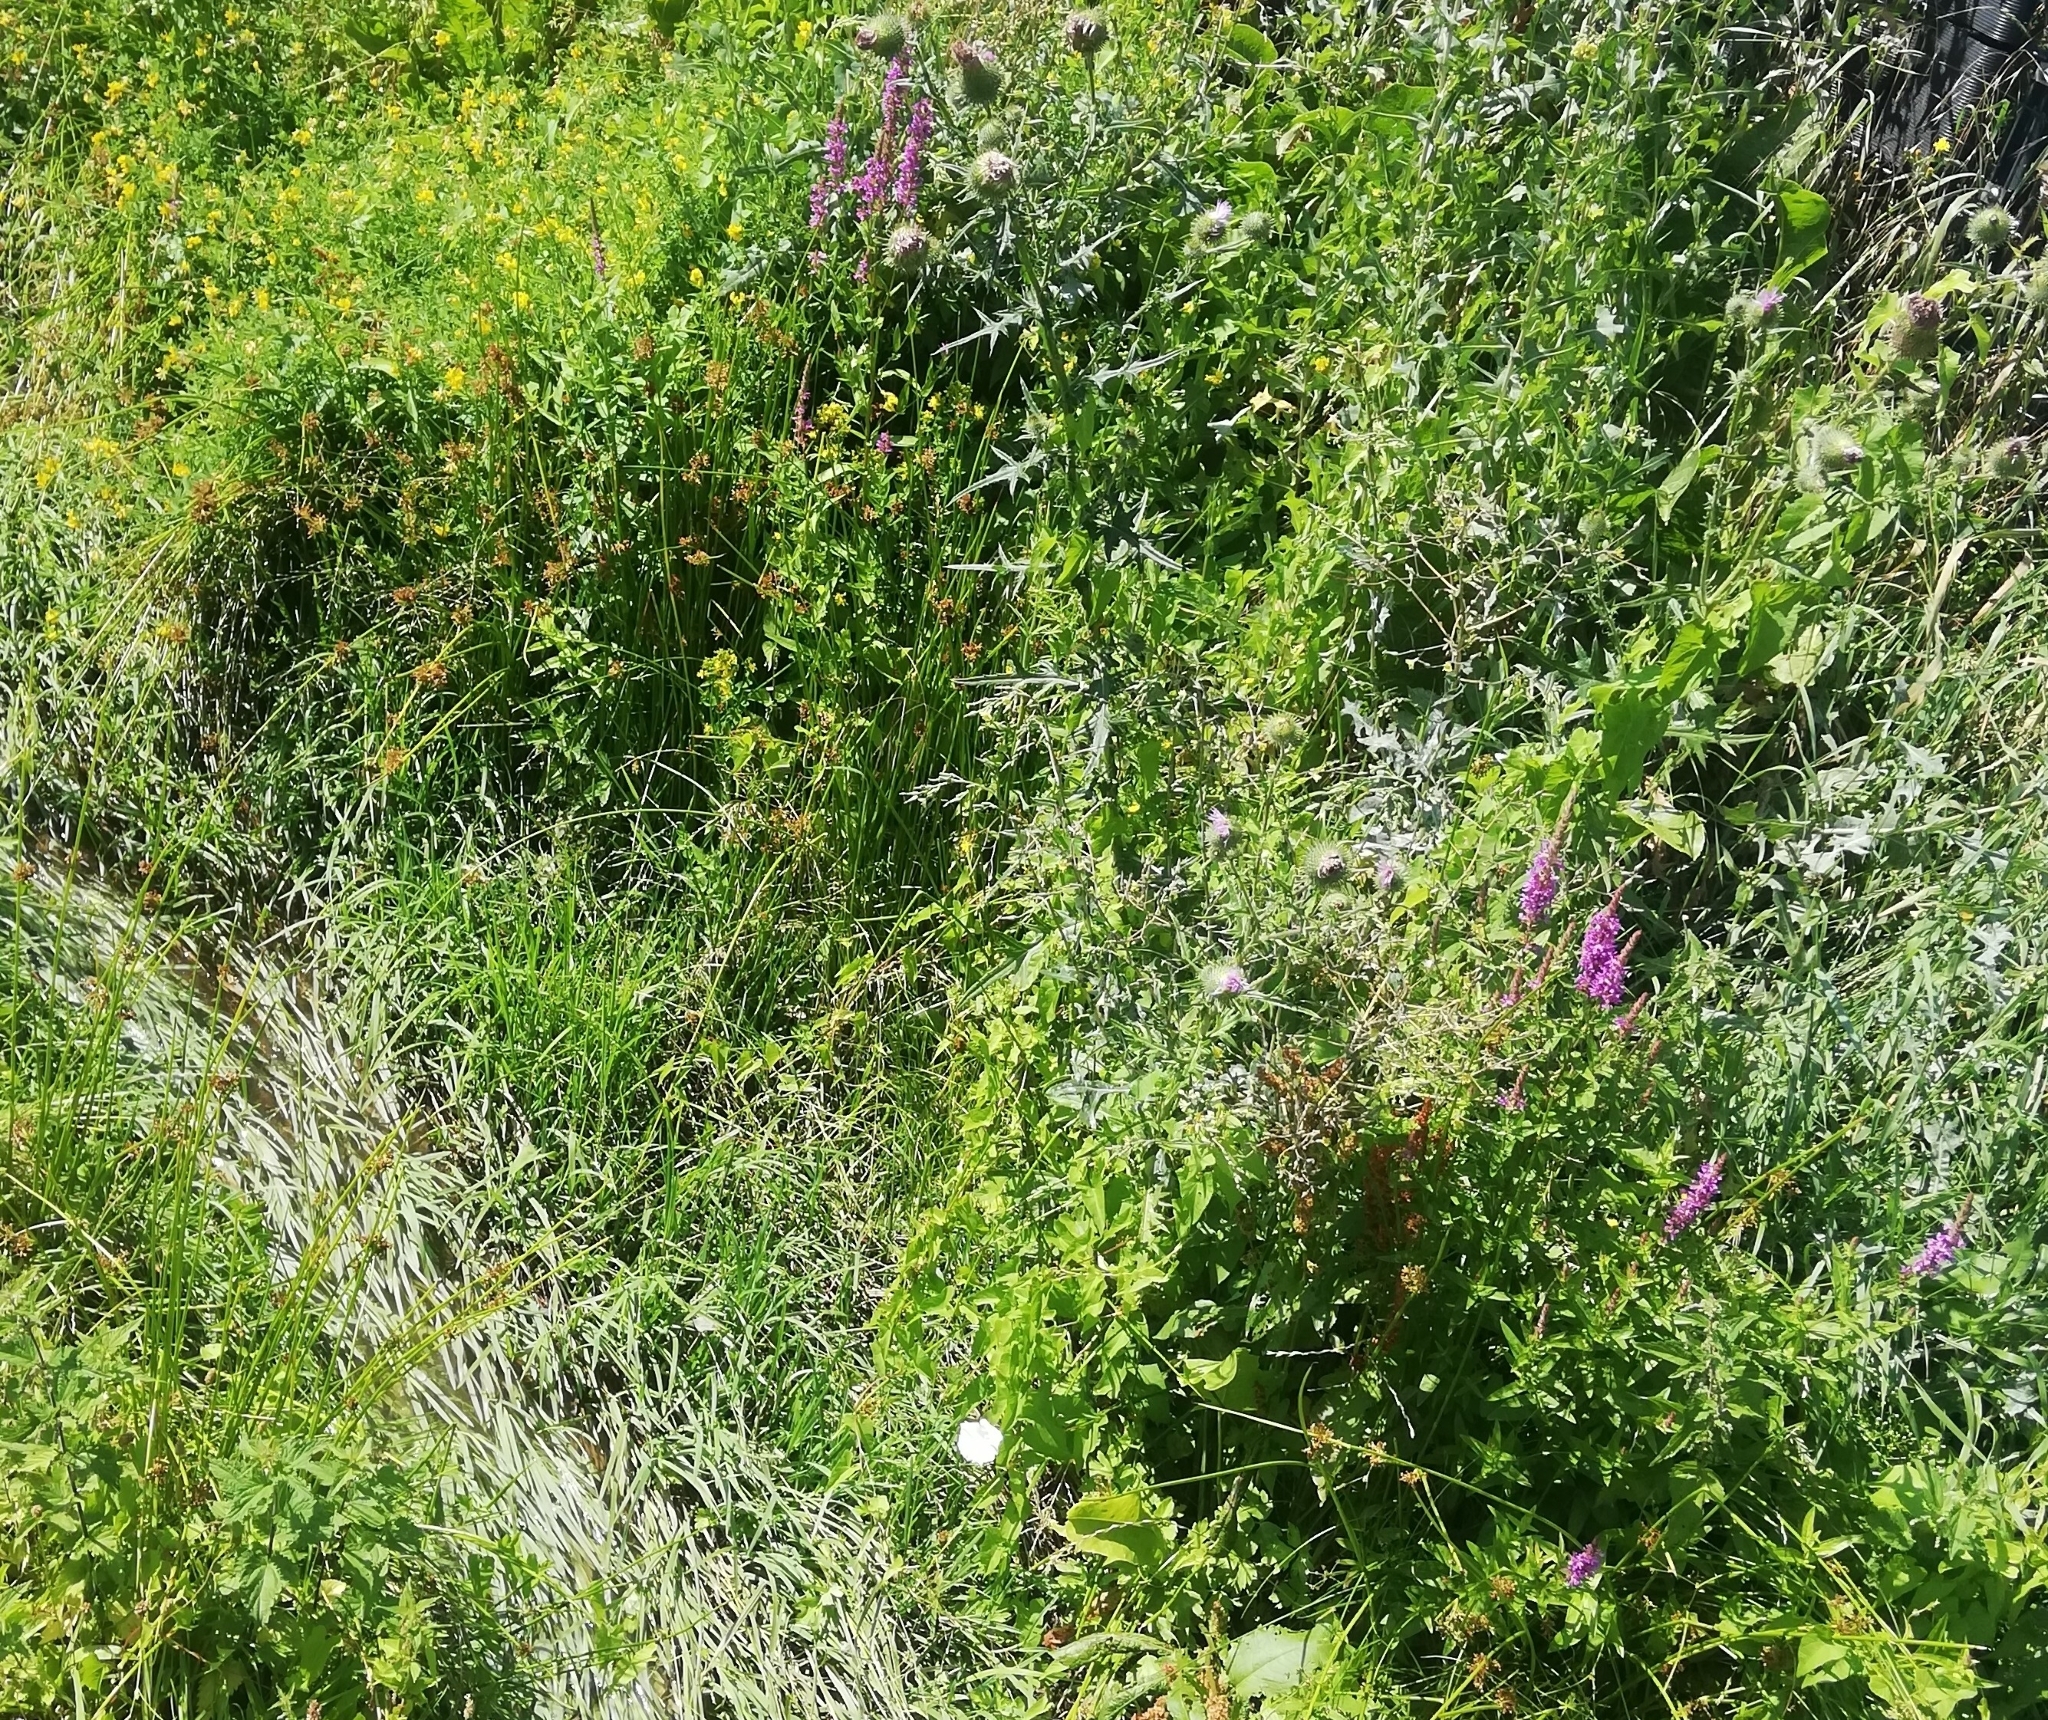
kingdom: Plantae
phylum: Tracheophyta
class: Magnoliopsida
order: Myrtales
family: Lythraceae
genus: Lythrum
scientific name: Lythrum salicaria
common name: Purple loosestrife
